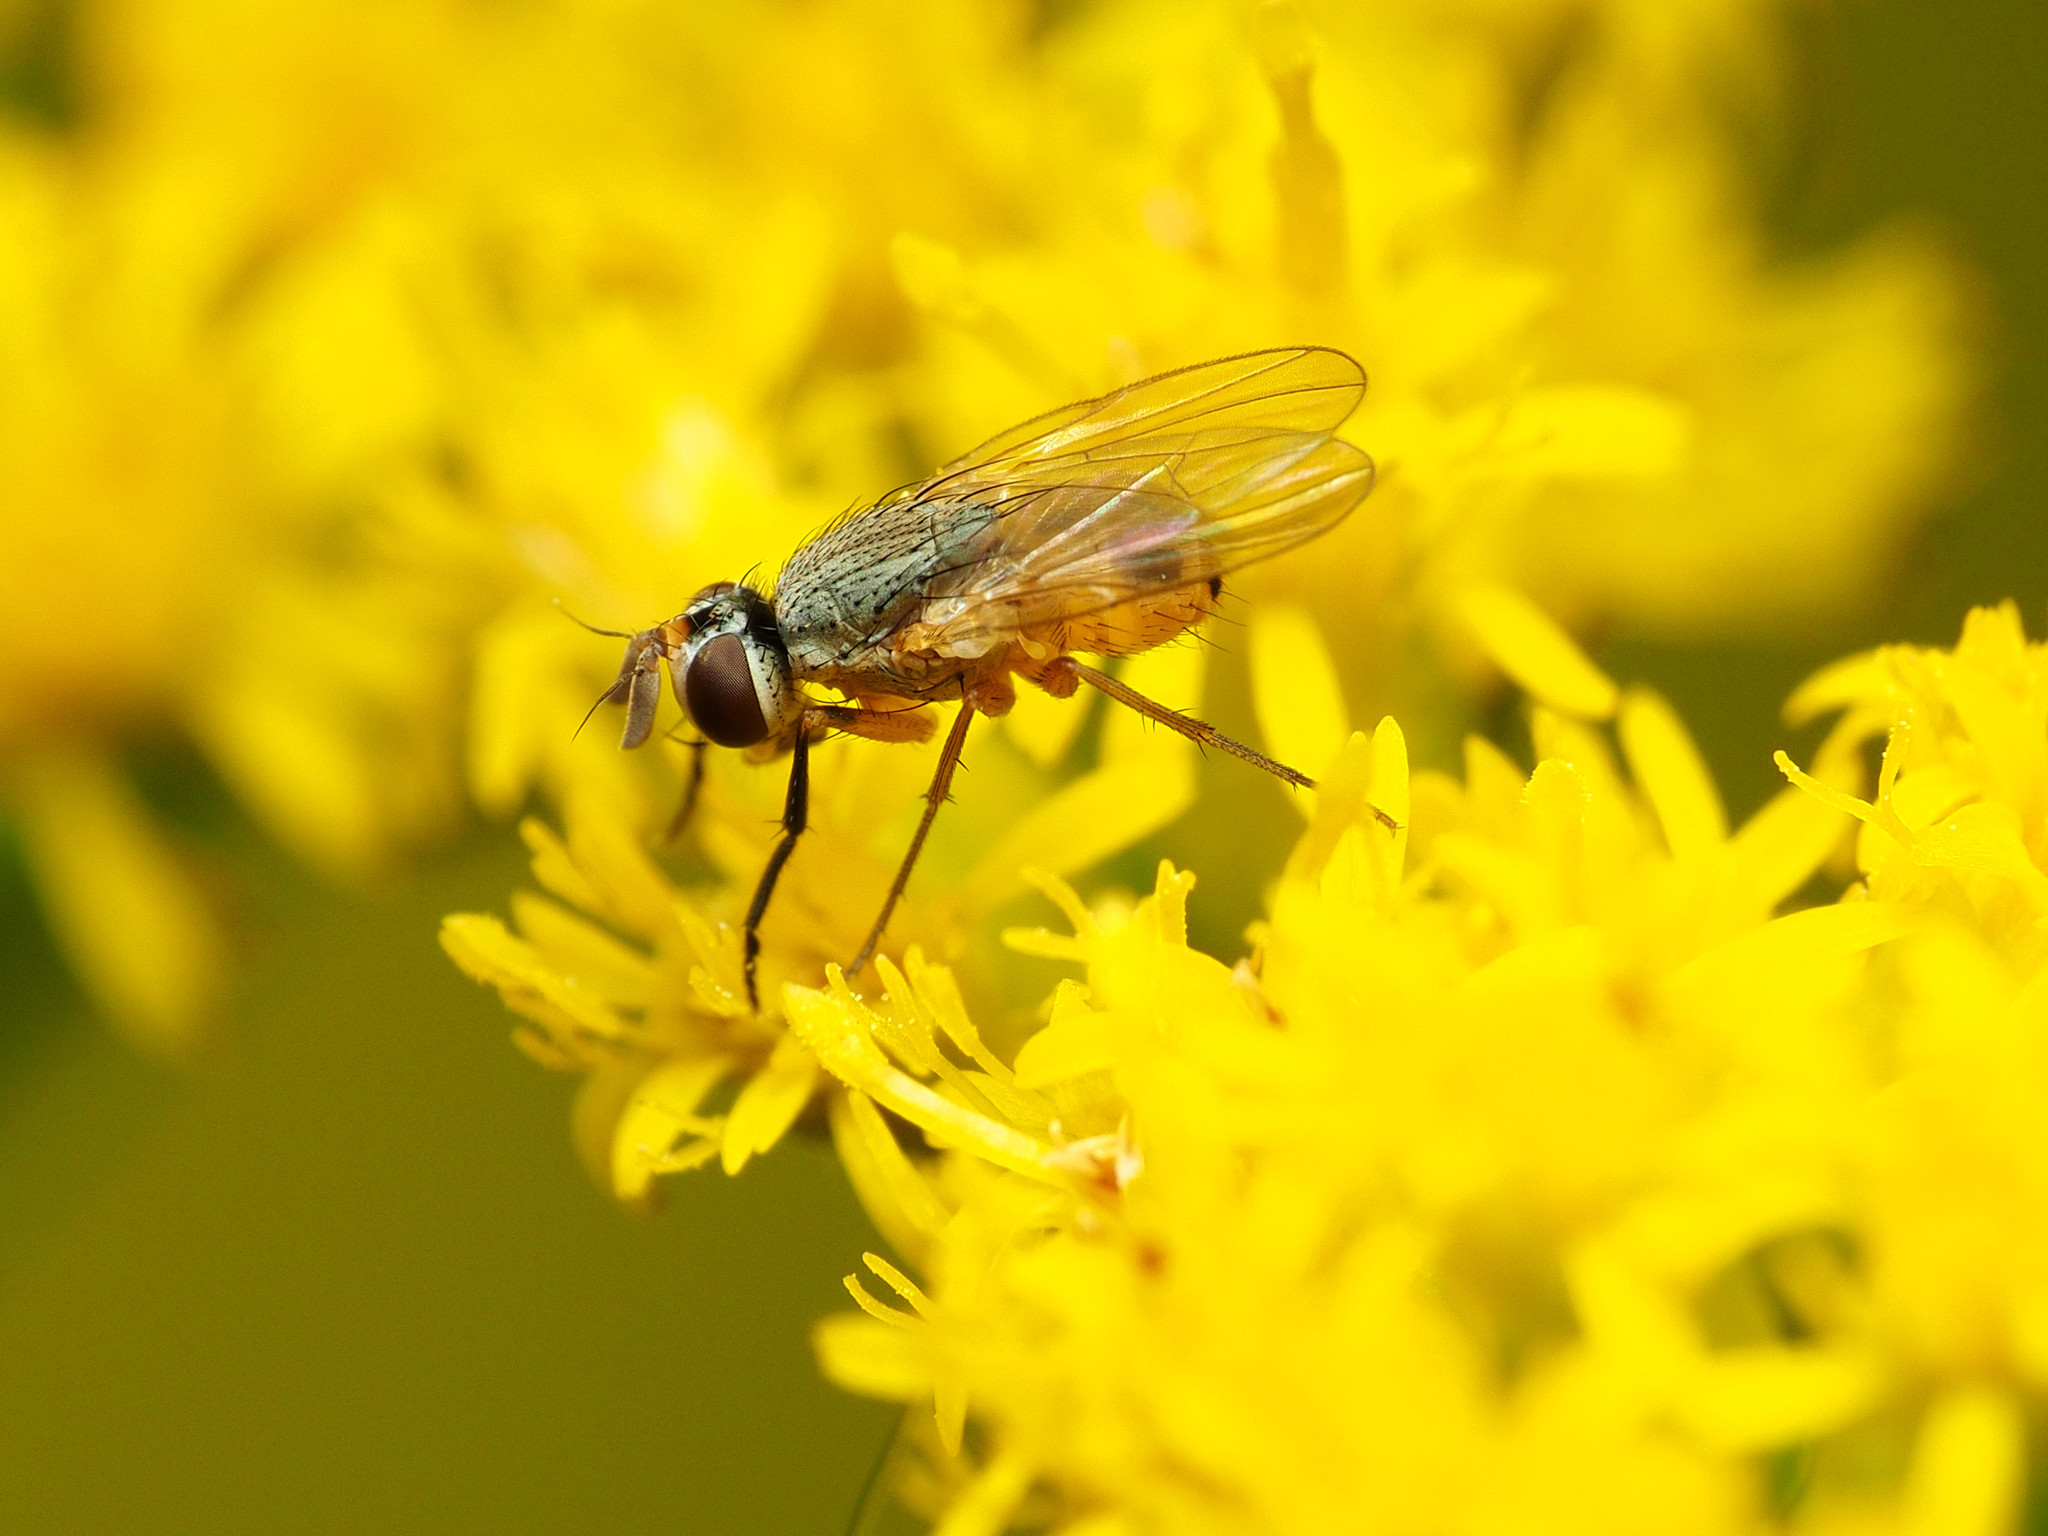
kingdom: Animalia
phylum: Arthropoda
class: Insecta
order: Diptera
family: Muscidae
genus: Atherigona
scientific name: Atherigona reversura
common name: Bermudagrass stem maggot
